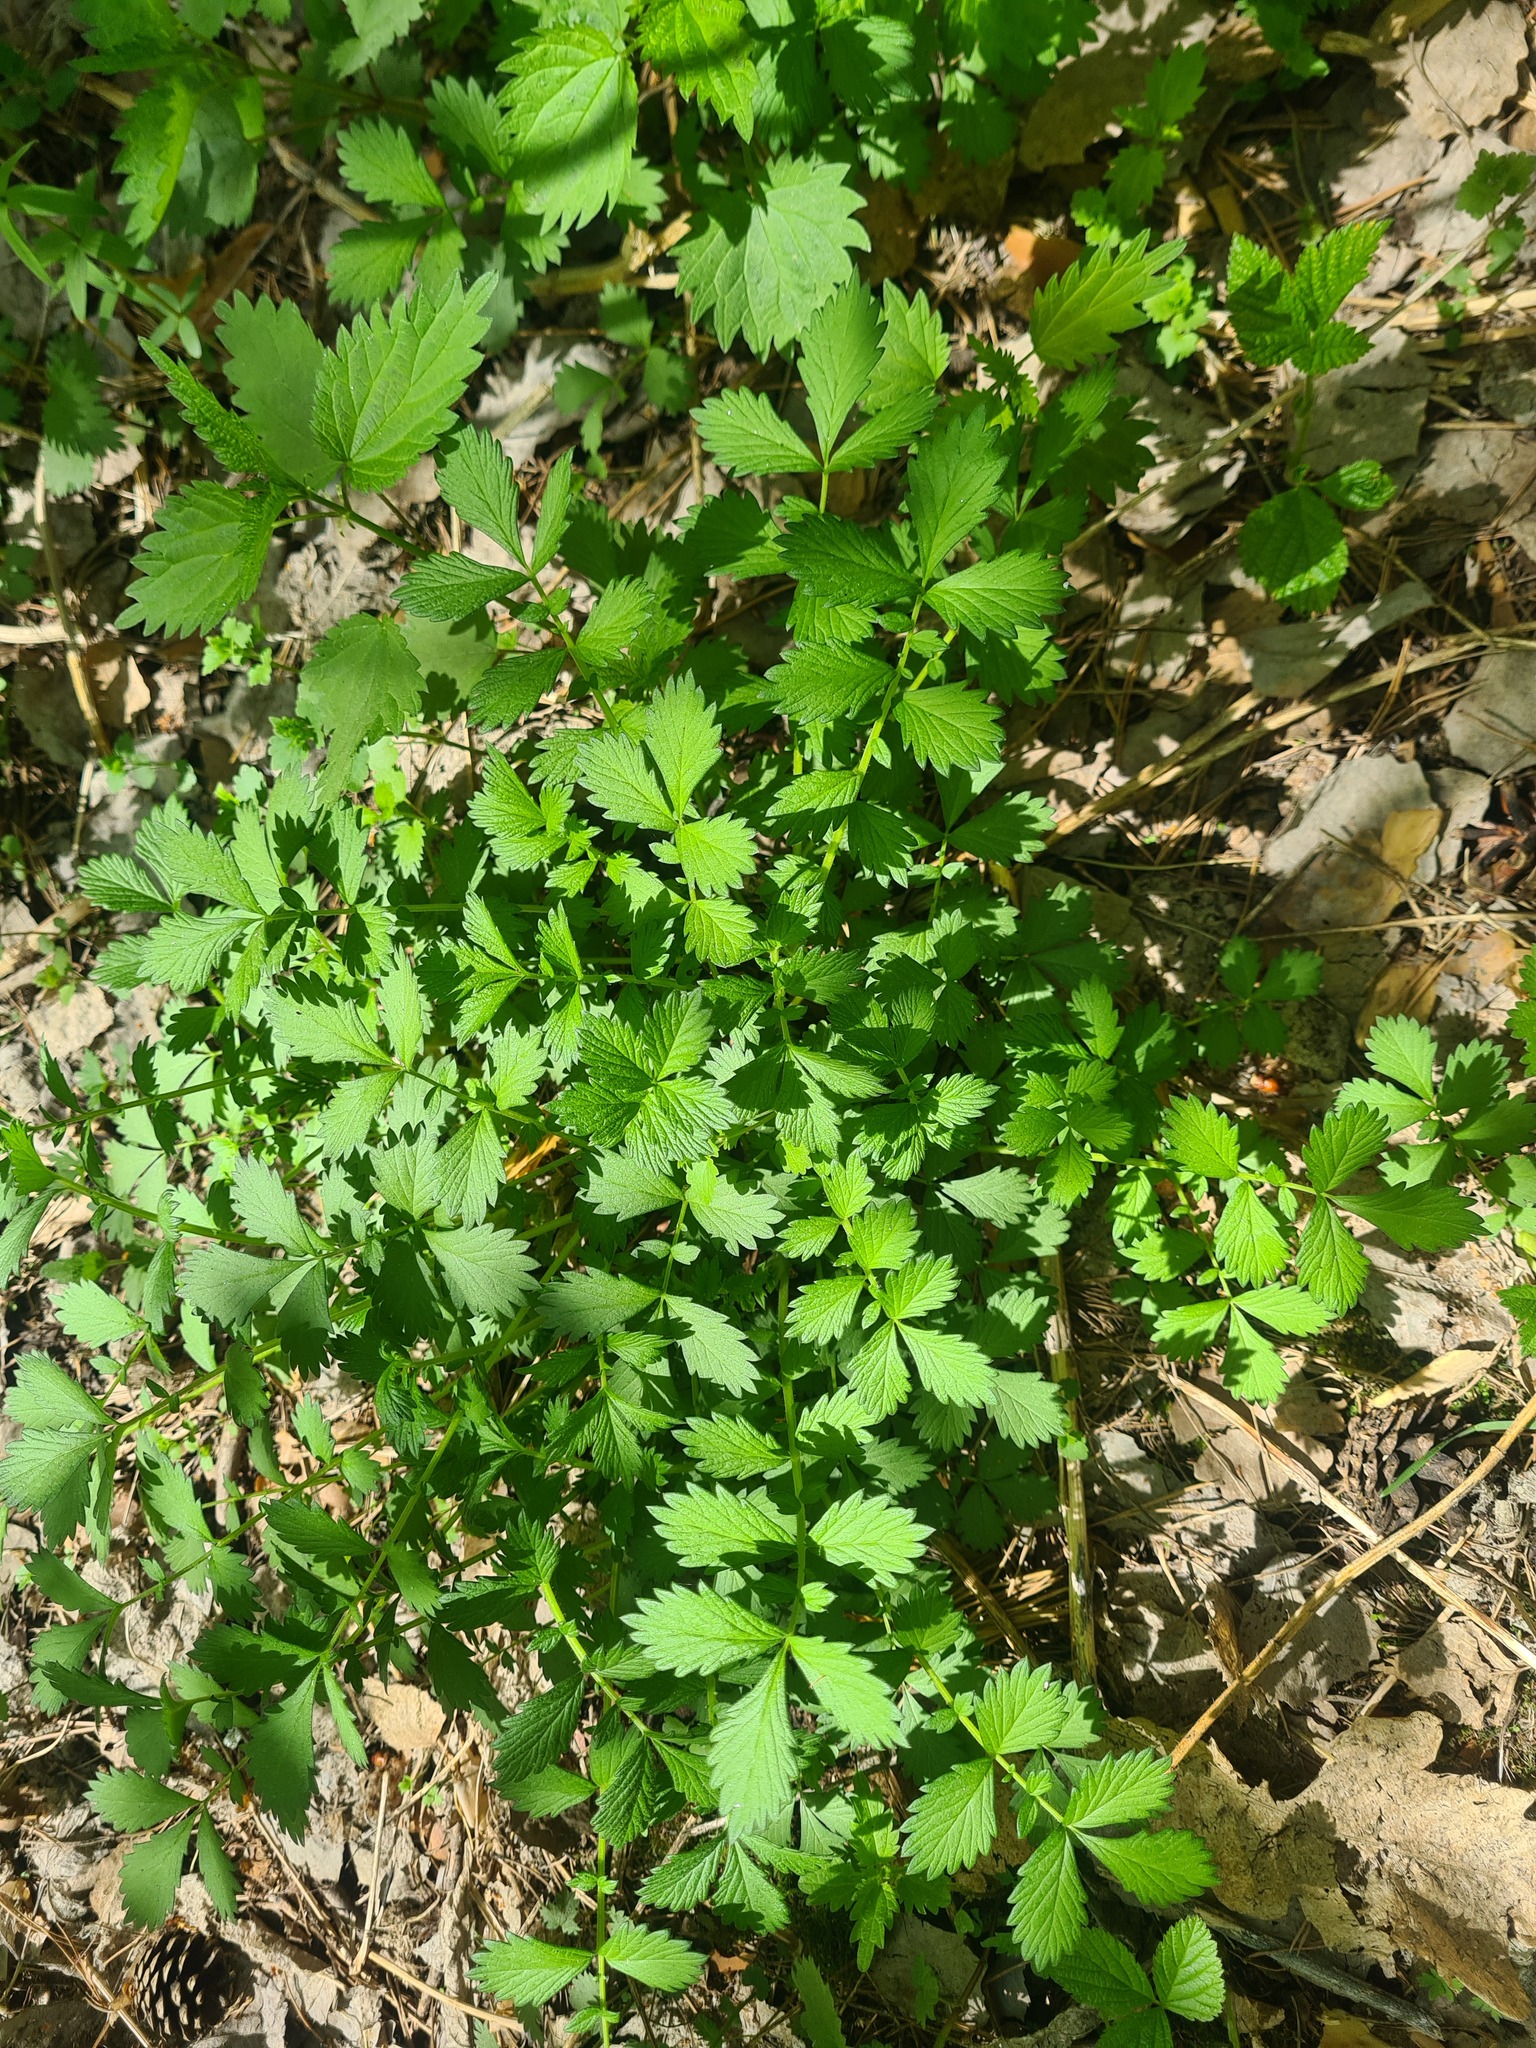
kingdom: Plantae
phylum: Tracheophyta
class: Magnoliopsida
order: Rosales
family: Rosaceae
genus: Agrimonia
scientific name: Agrimonia pilosa
